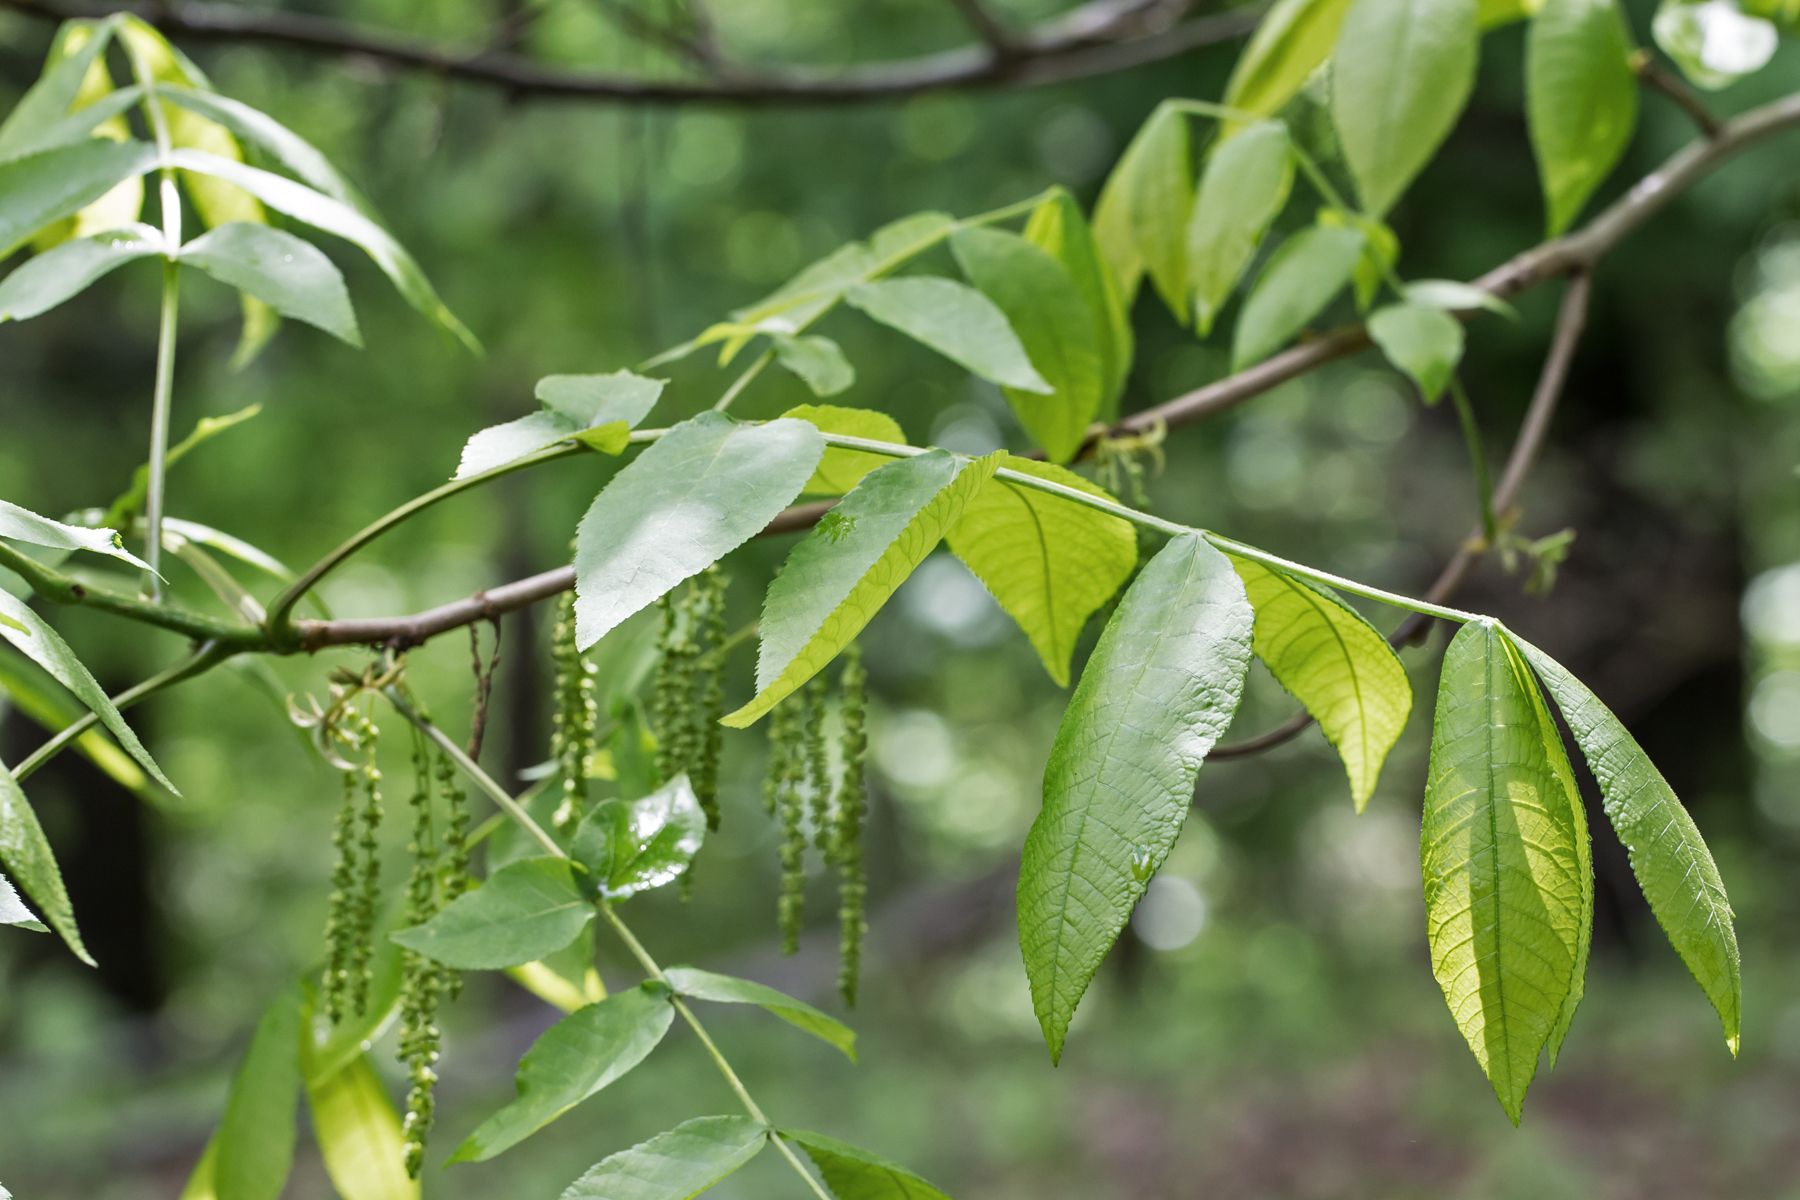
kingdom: Plantae
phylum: Tracheophyta
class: Magnoliopsida
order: Fagales
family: Juglandaceae
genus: Carya
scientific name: Carya cordiformis
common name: Bitternut hickory
